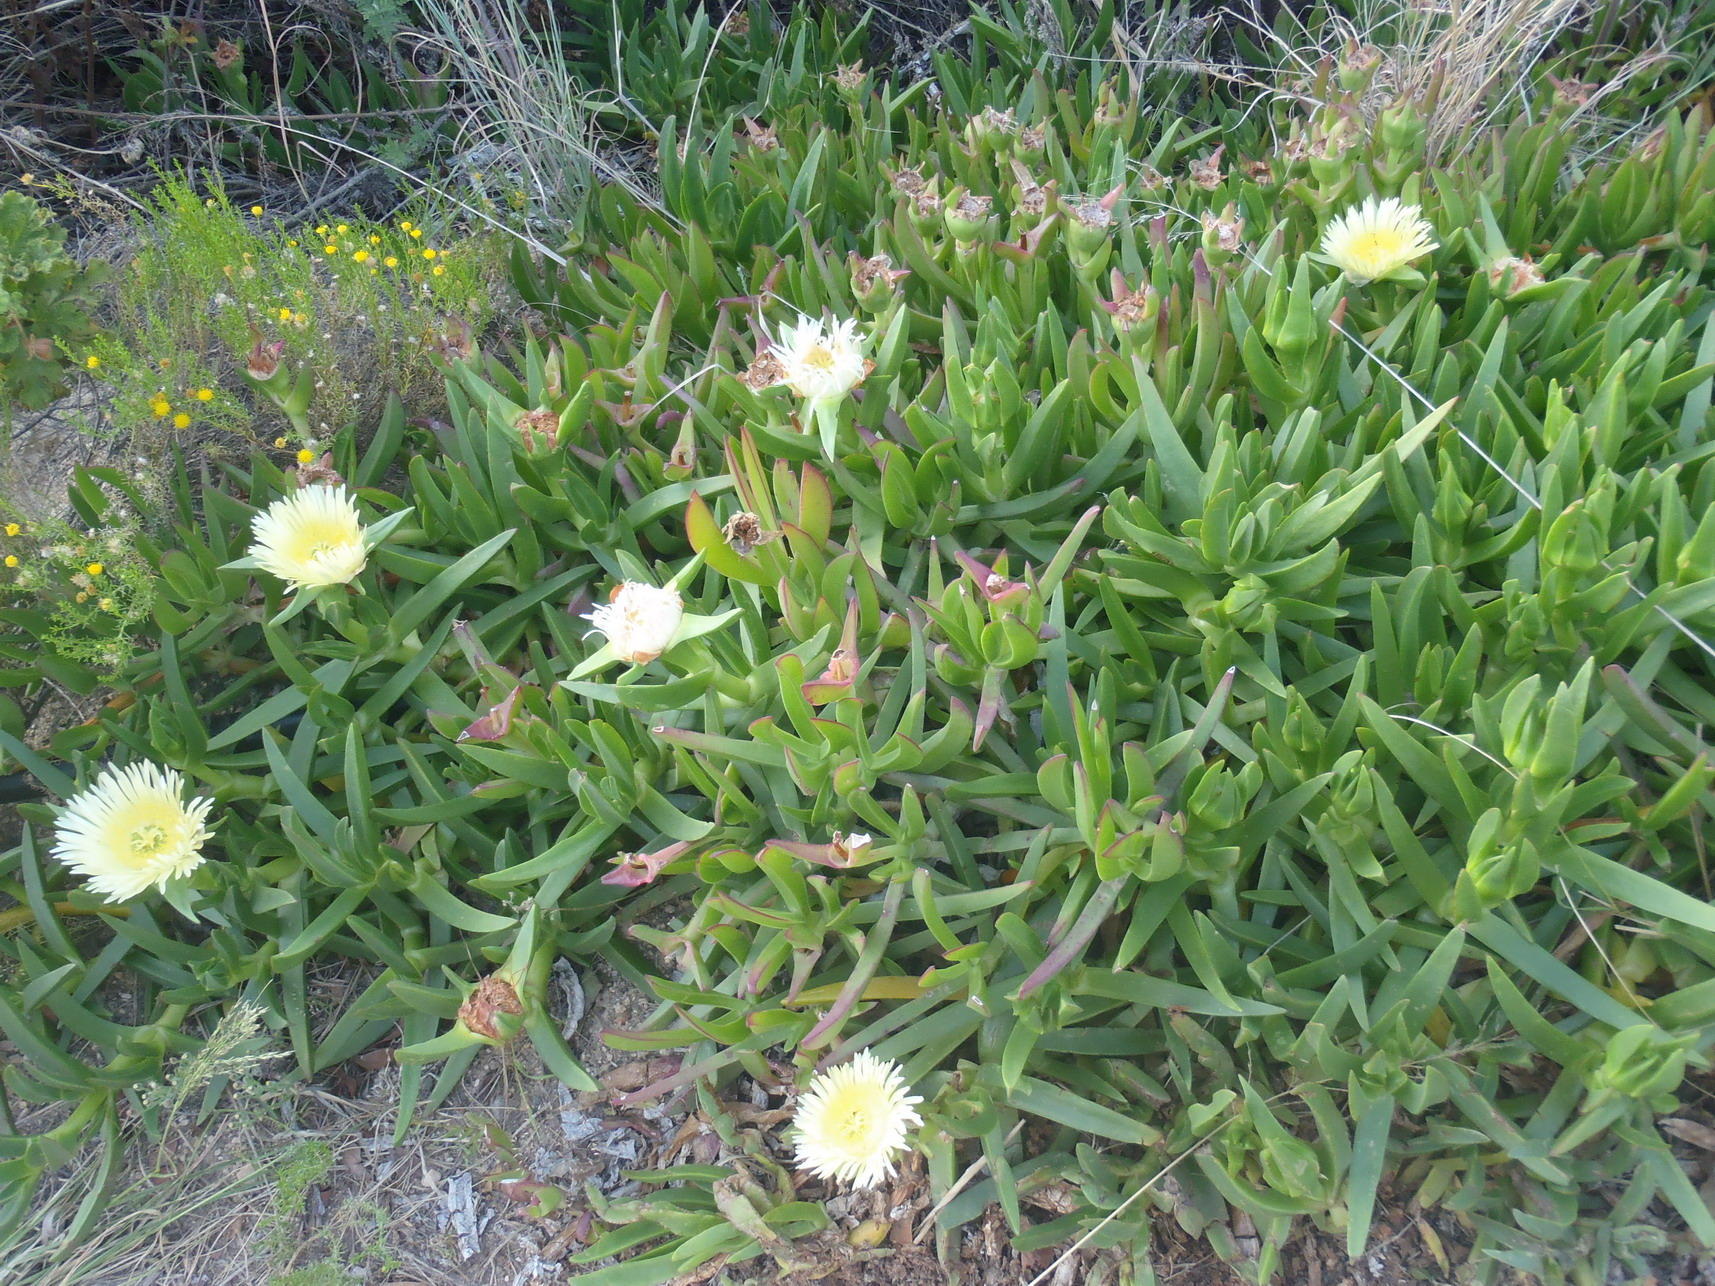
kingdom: Plantae
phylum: Tracheophyta
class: Magnoliopsida
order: Caryophyllales
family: Aizoaceae
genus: Carpobrotus
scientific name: Carpobrotus edulis
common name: Hottentot-fig
